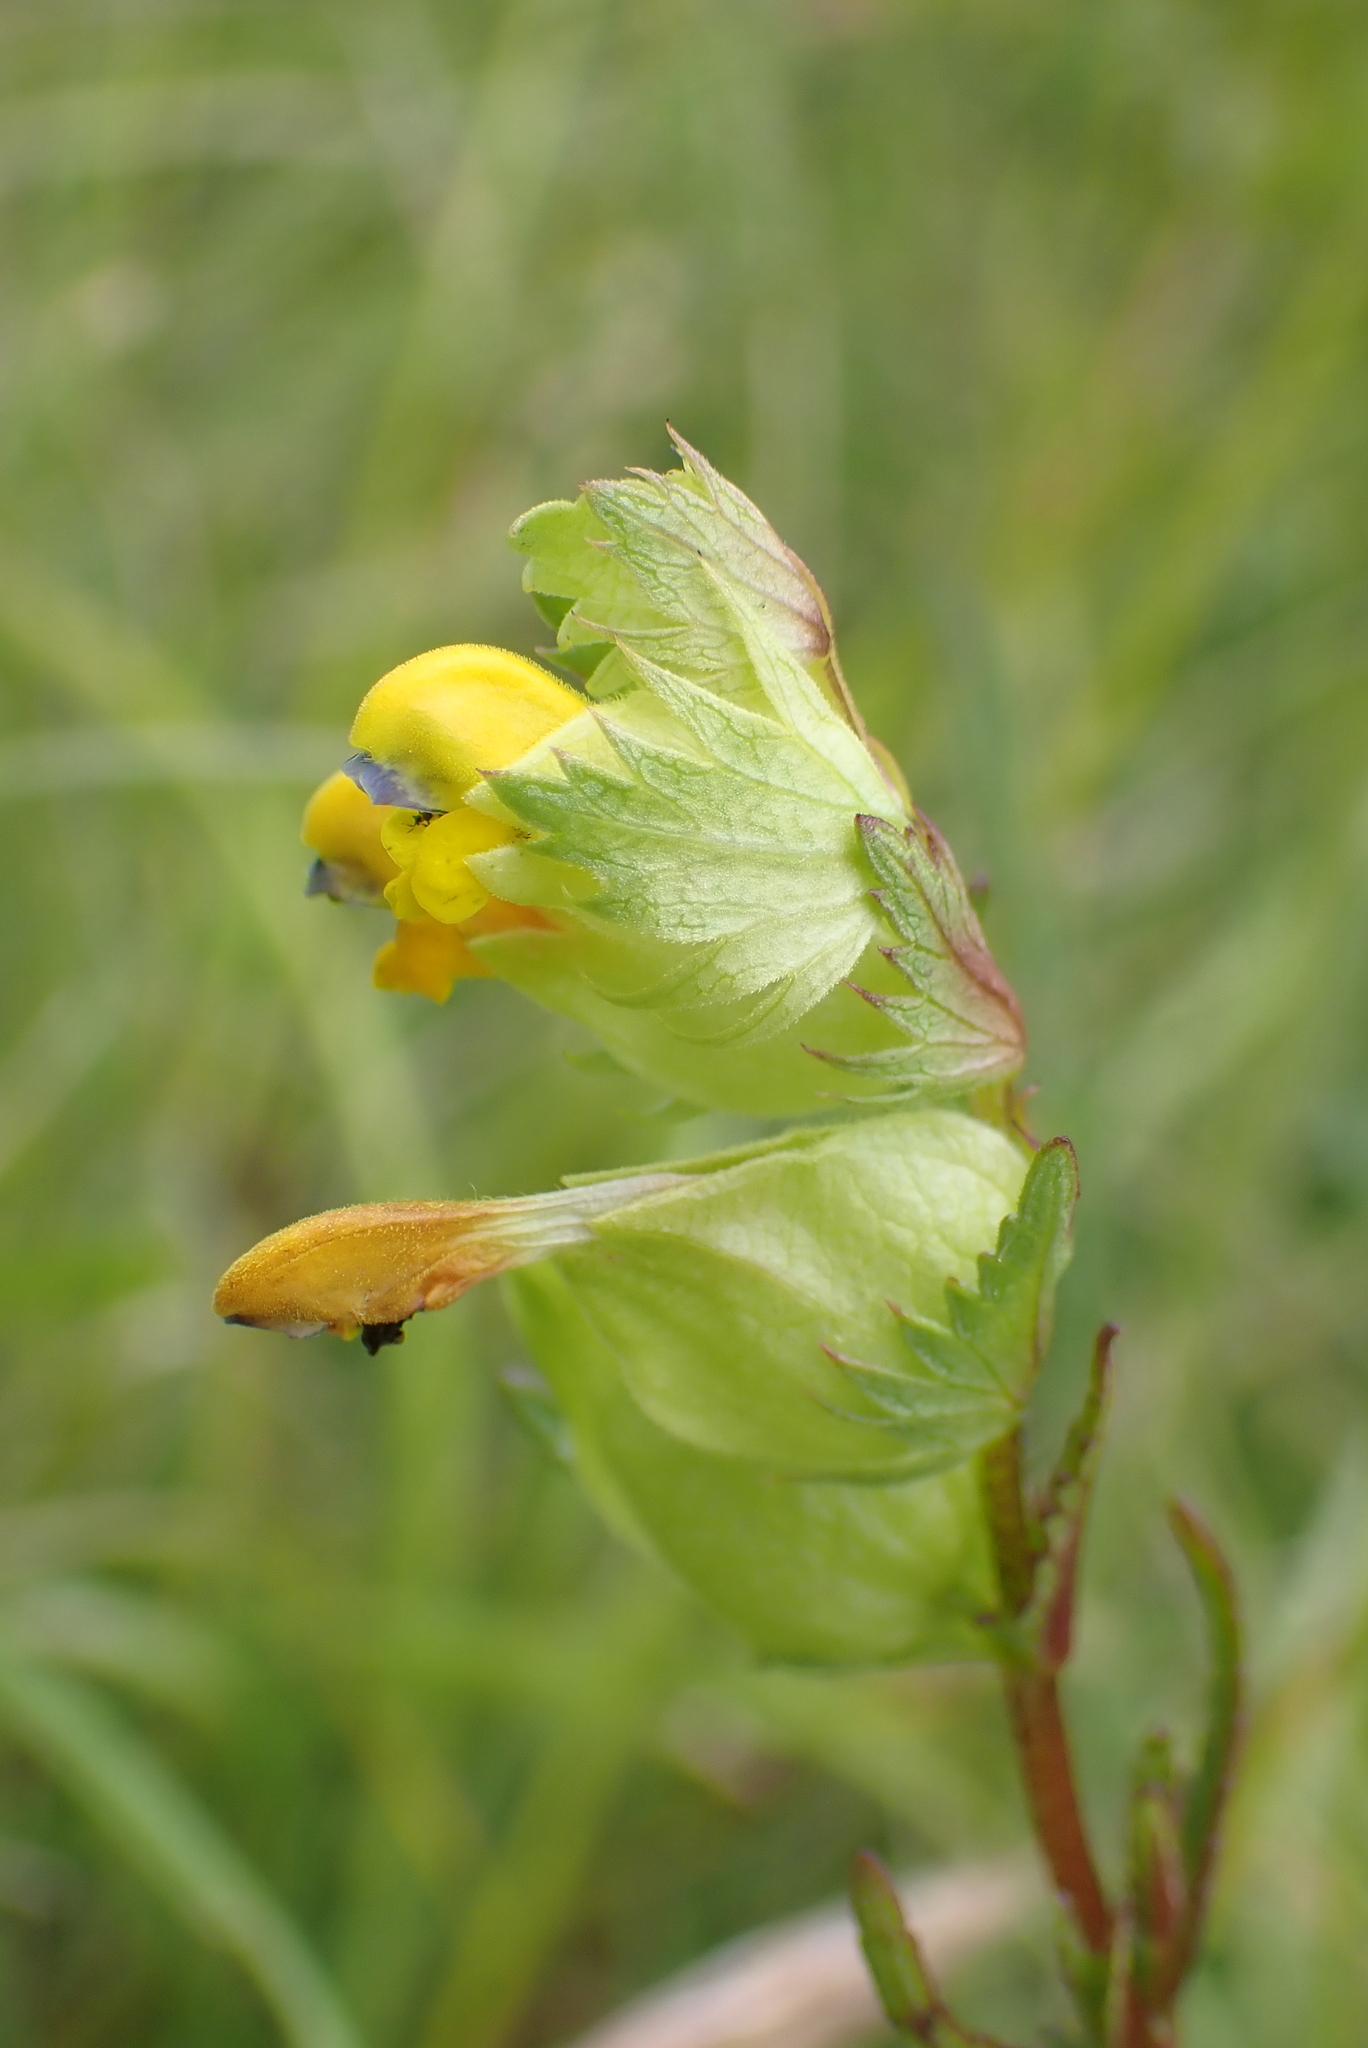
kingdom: Plantae
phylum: Tracheophyta
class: Magnoliopsida
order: Lamiales
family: Orobanchaceae
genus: Rhinanthus
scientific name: Rhinanthus minor
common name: Yellow-rattle
